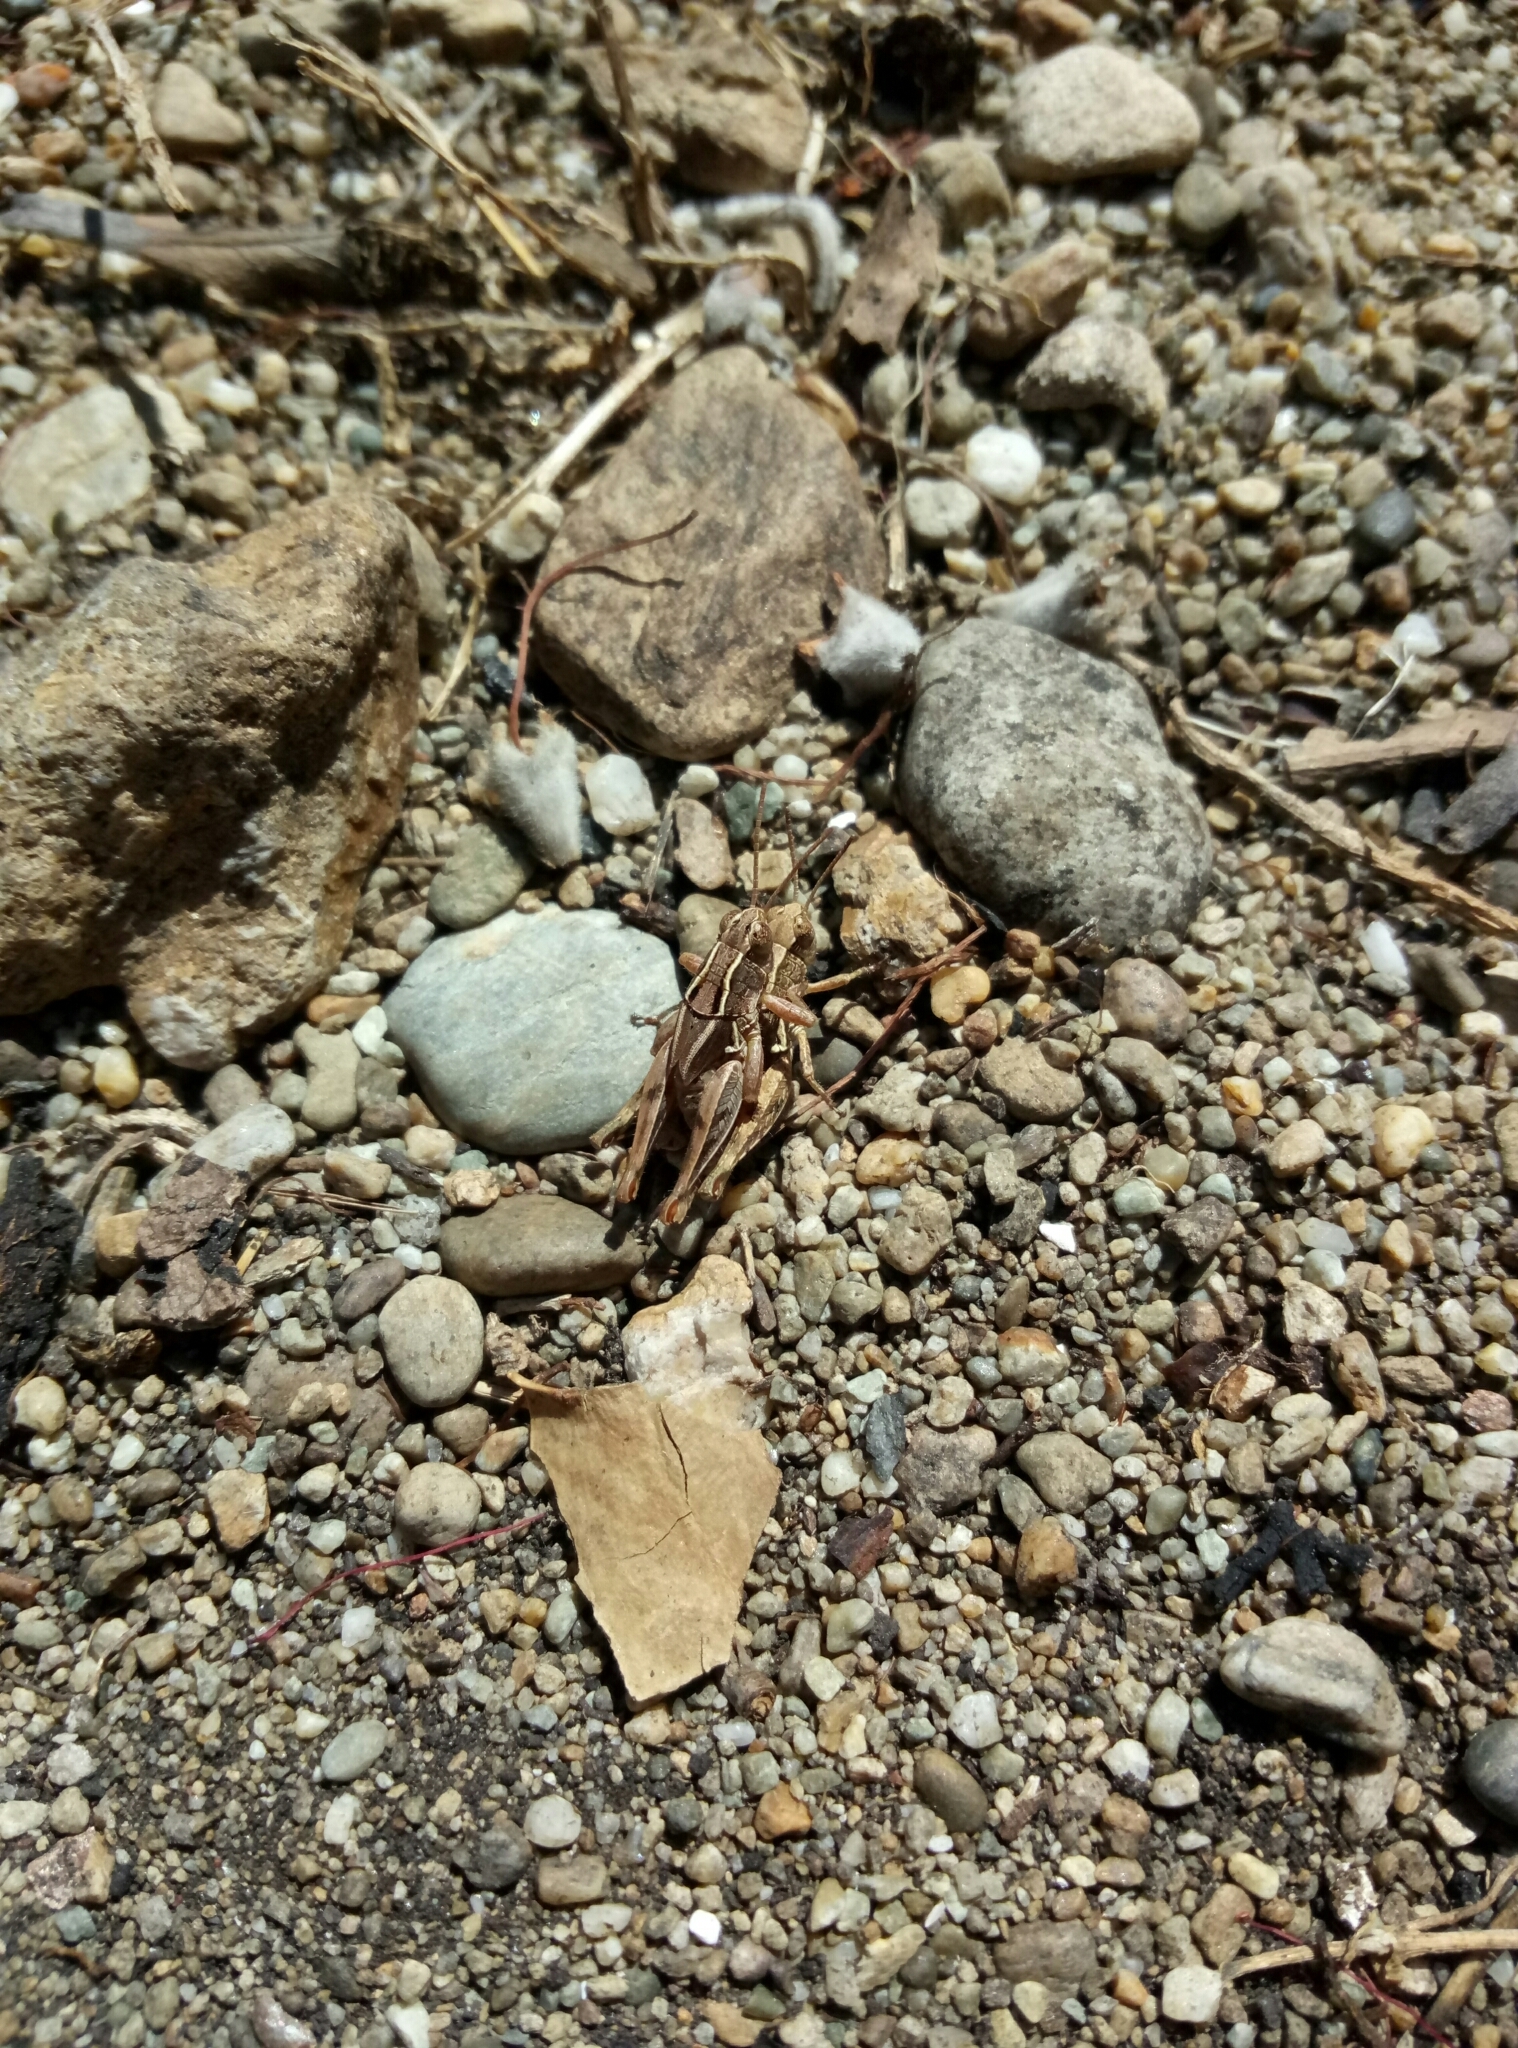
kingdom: Animalia
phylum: Arthropoda
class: Insecta
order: Orthoptera
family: Acrididae
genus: Phaulacridium
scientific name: Phaulacridium marginale
